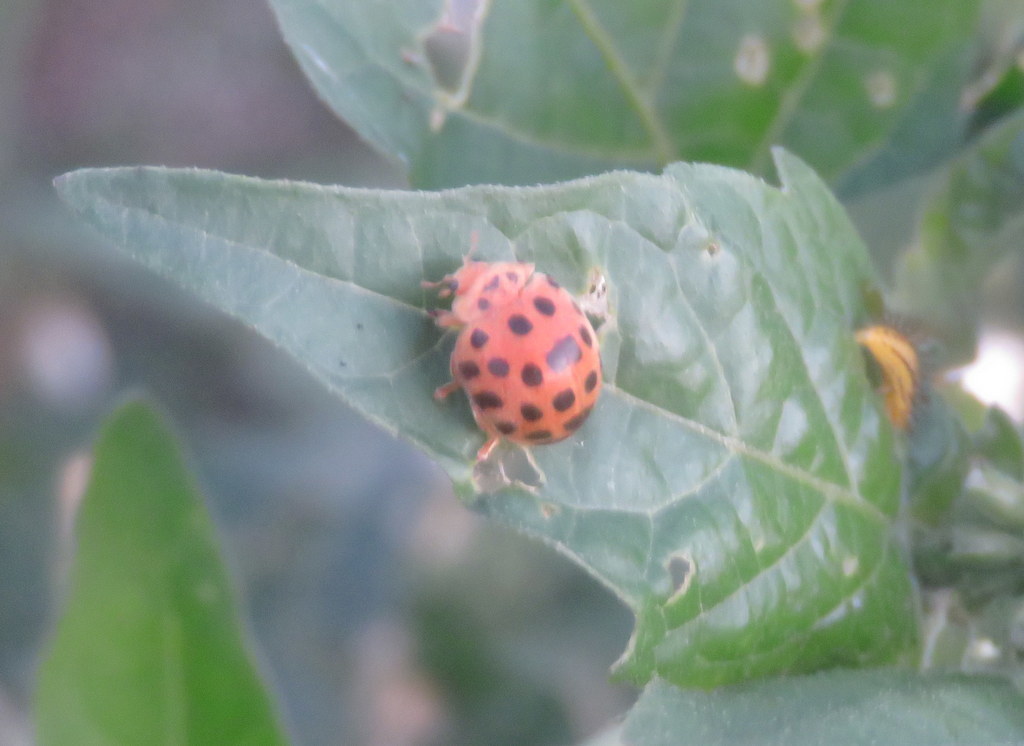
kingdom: Animalia
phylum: Arthropoda
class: Insecta
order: Coleoptera
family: Coccinellidae
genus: Henosepilachna
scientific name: Henosepilachna vigintioctopunctata
